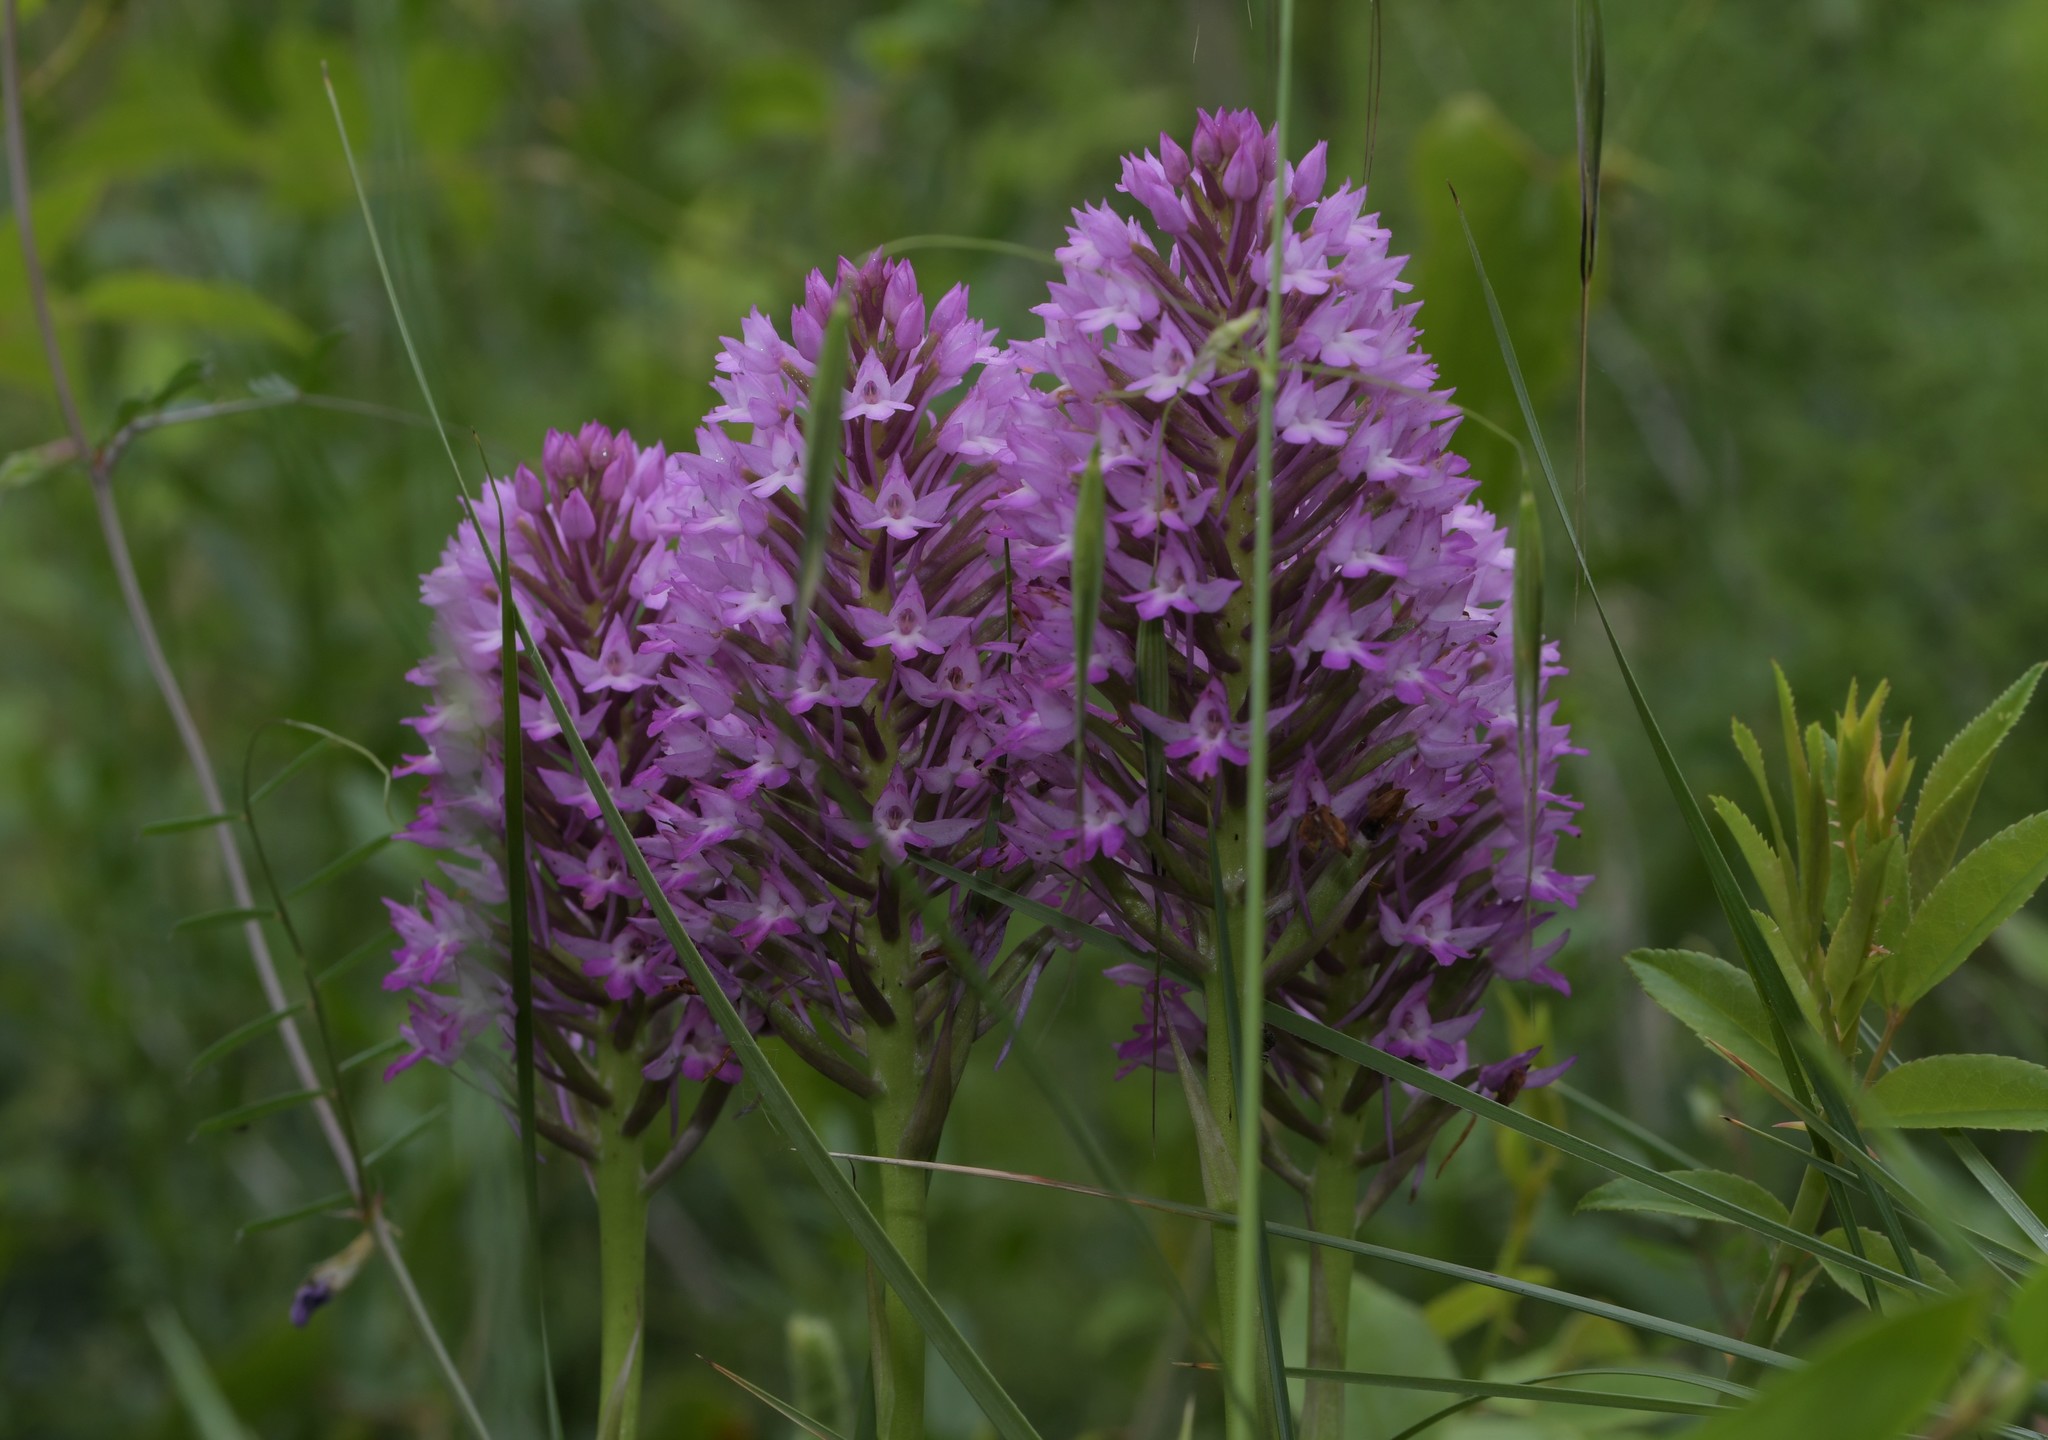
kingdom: Plantae
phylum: Tracheophyta
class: Liliopsida
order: Asparagales
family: Orchidaceae
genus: Anacamptis
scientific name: Anacamptis pyramidalis
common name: Pyramidal orchid
